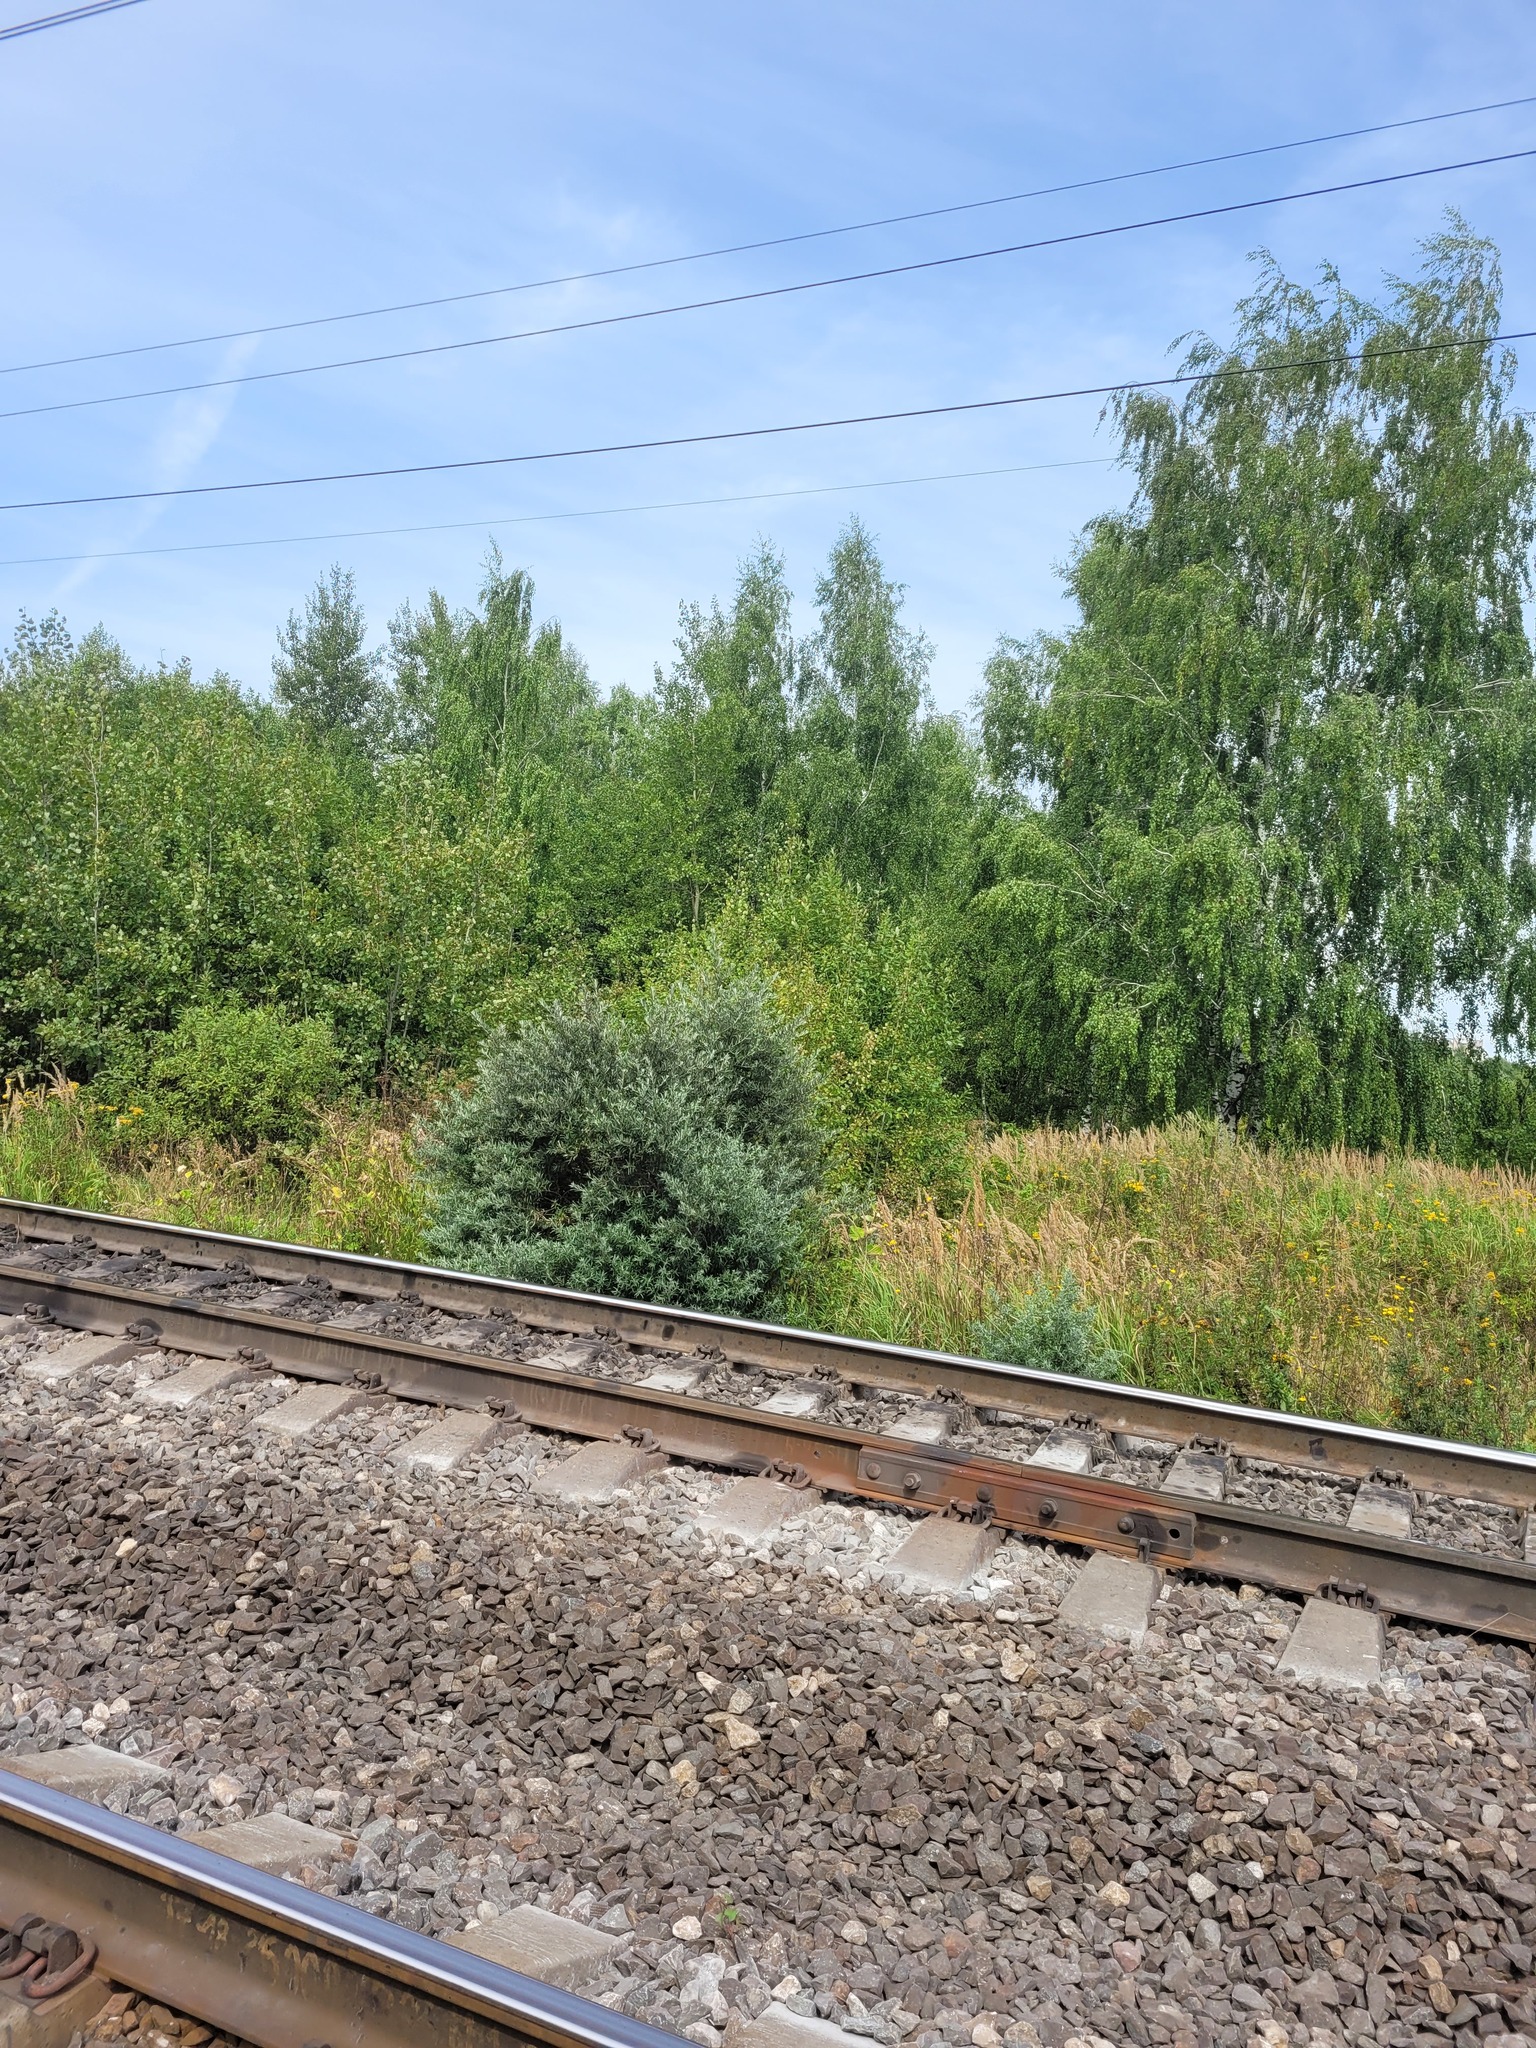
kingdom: Plantae
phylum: Tracheophyta
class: Magnoliopsida
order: Rosales
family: Elaeagnaceae
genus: Hippophae
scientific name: Hippophae rhamnoides
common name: Sea-buckthorn
